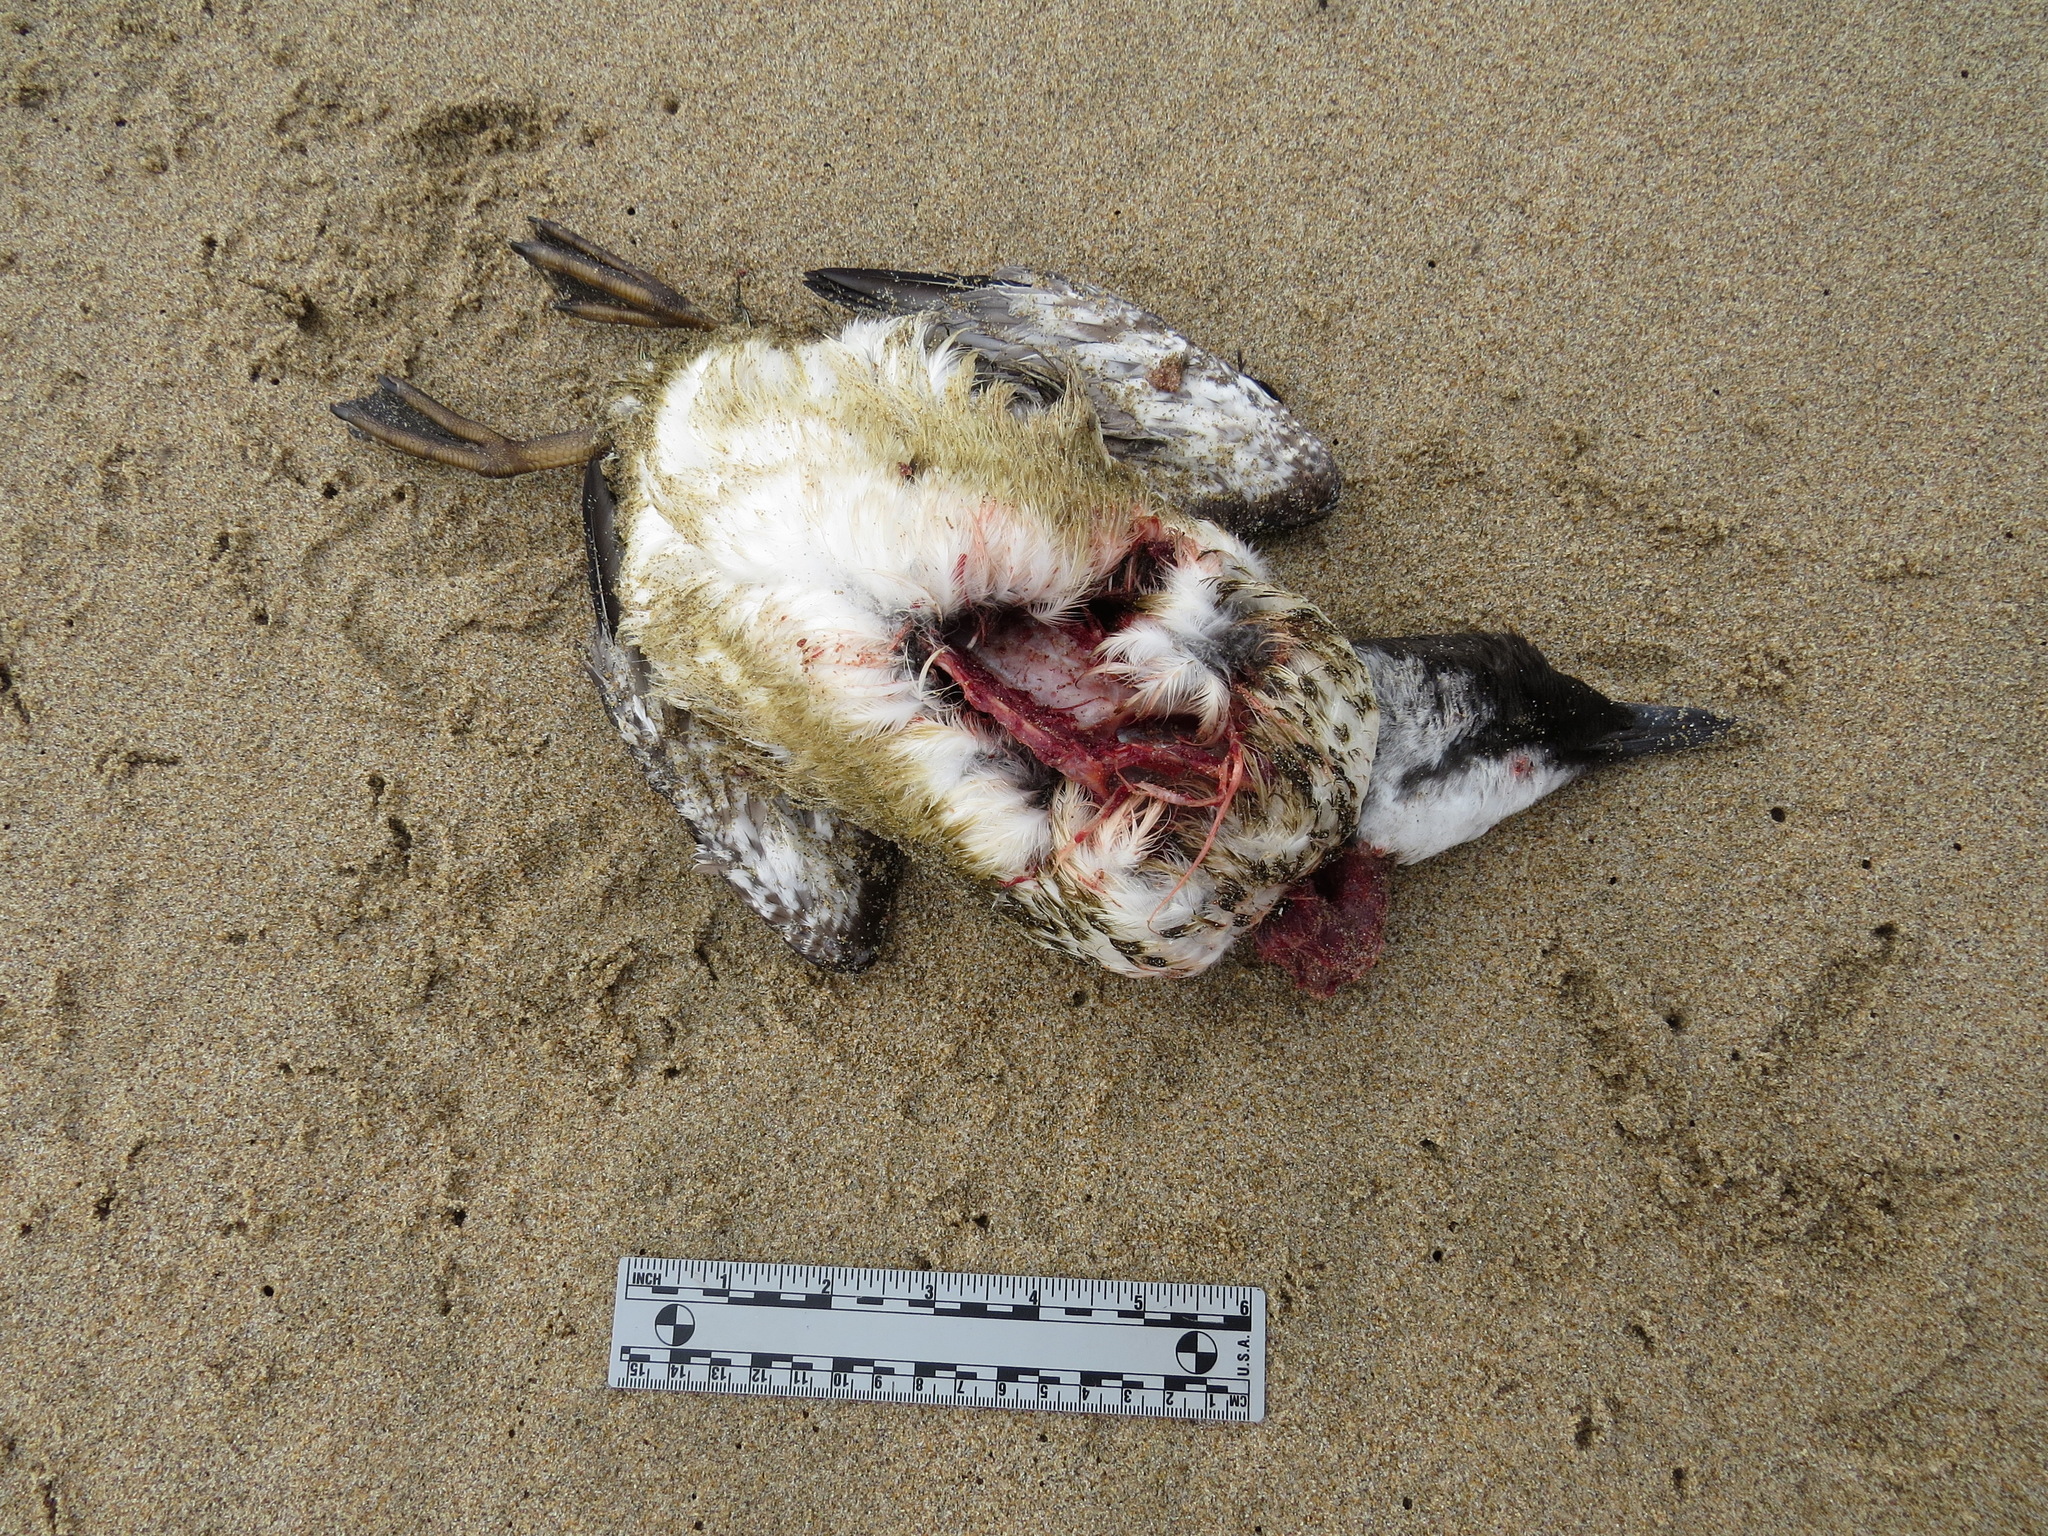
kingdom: Animalia
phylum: Chordata
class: Aves
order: Charadriiformes
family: Alcidae
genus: Uria
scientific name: Uria aalge
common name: Common murre
